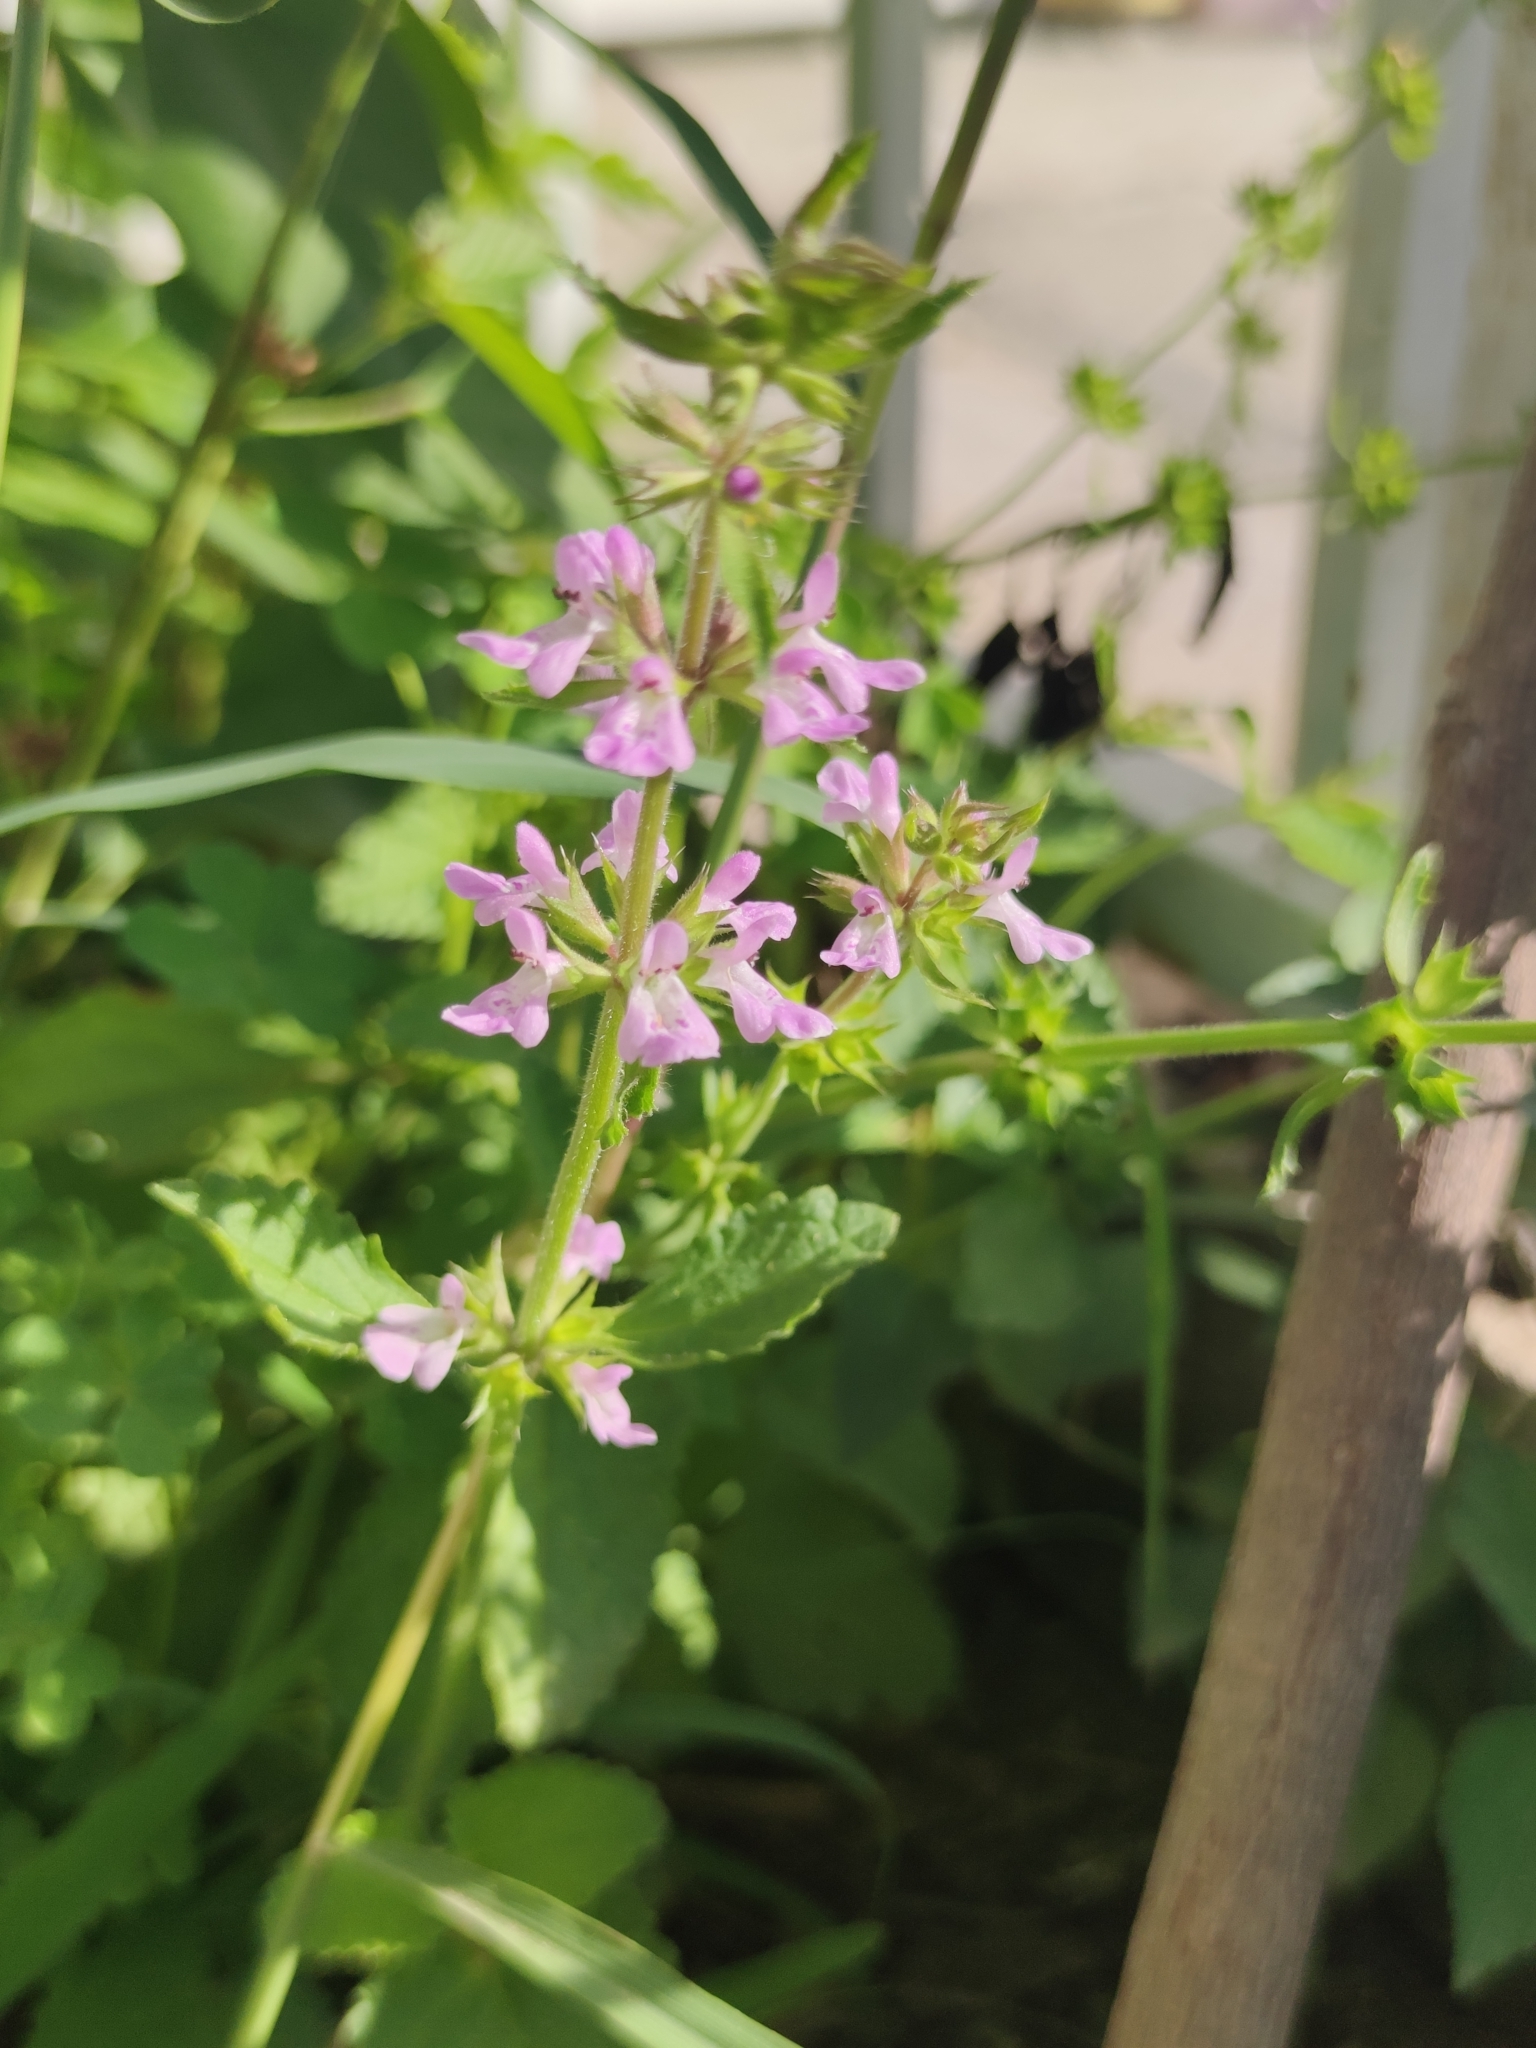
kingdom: Plantae
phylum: Tracheophyta
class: Magnoliopsida
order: Lamiales
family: Lamiaceae
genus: Stachys
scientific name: Stachys drummondii
